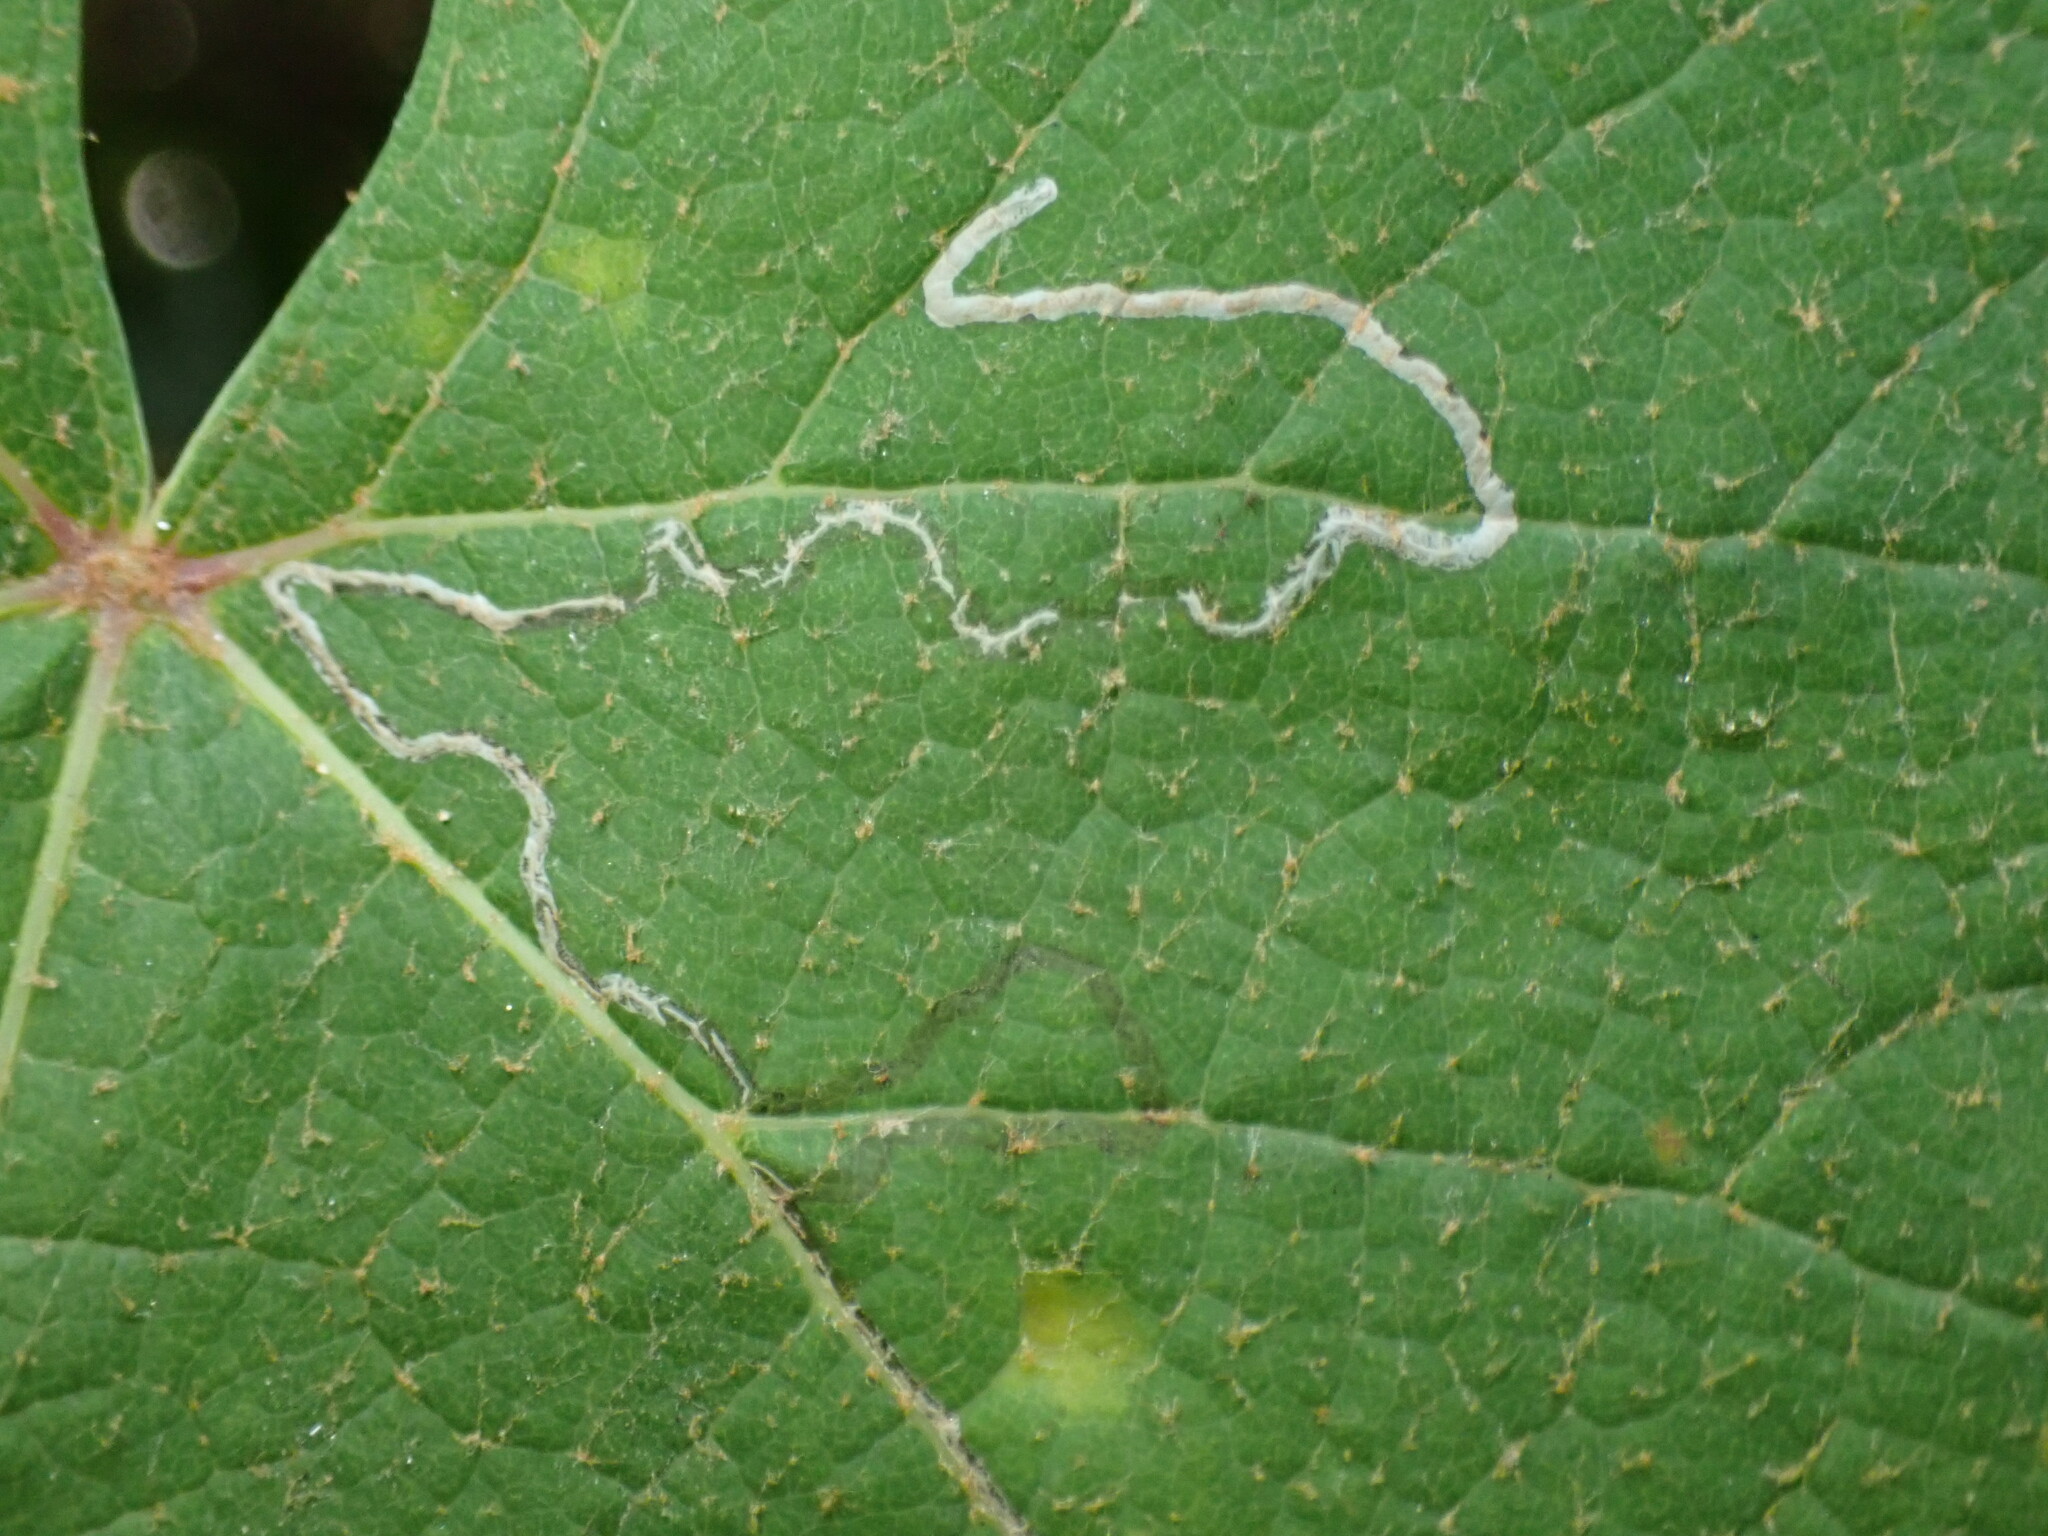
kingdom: Animalia
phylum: Arthropoda
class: Insecta
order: Lepidoptera
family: Gracillariidae
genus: Phyllocnistis
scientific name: Phyllocnistis vitegenella
